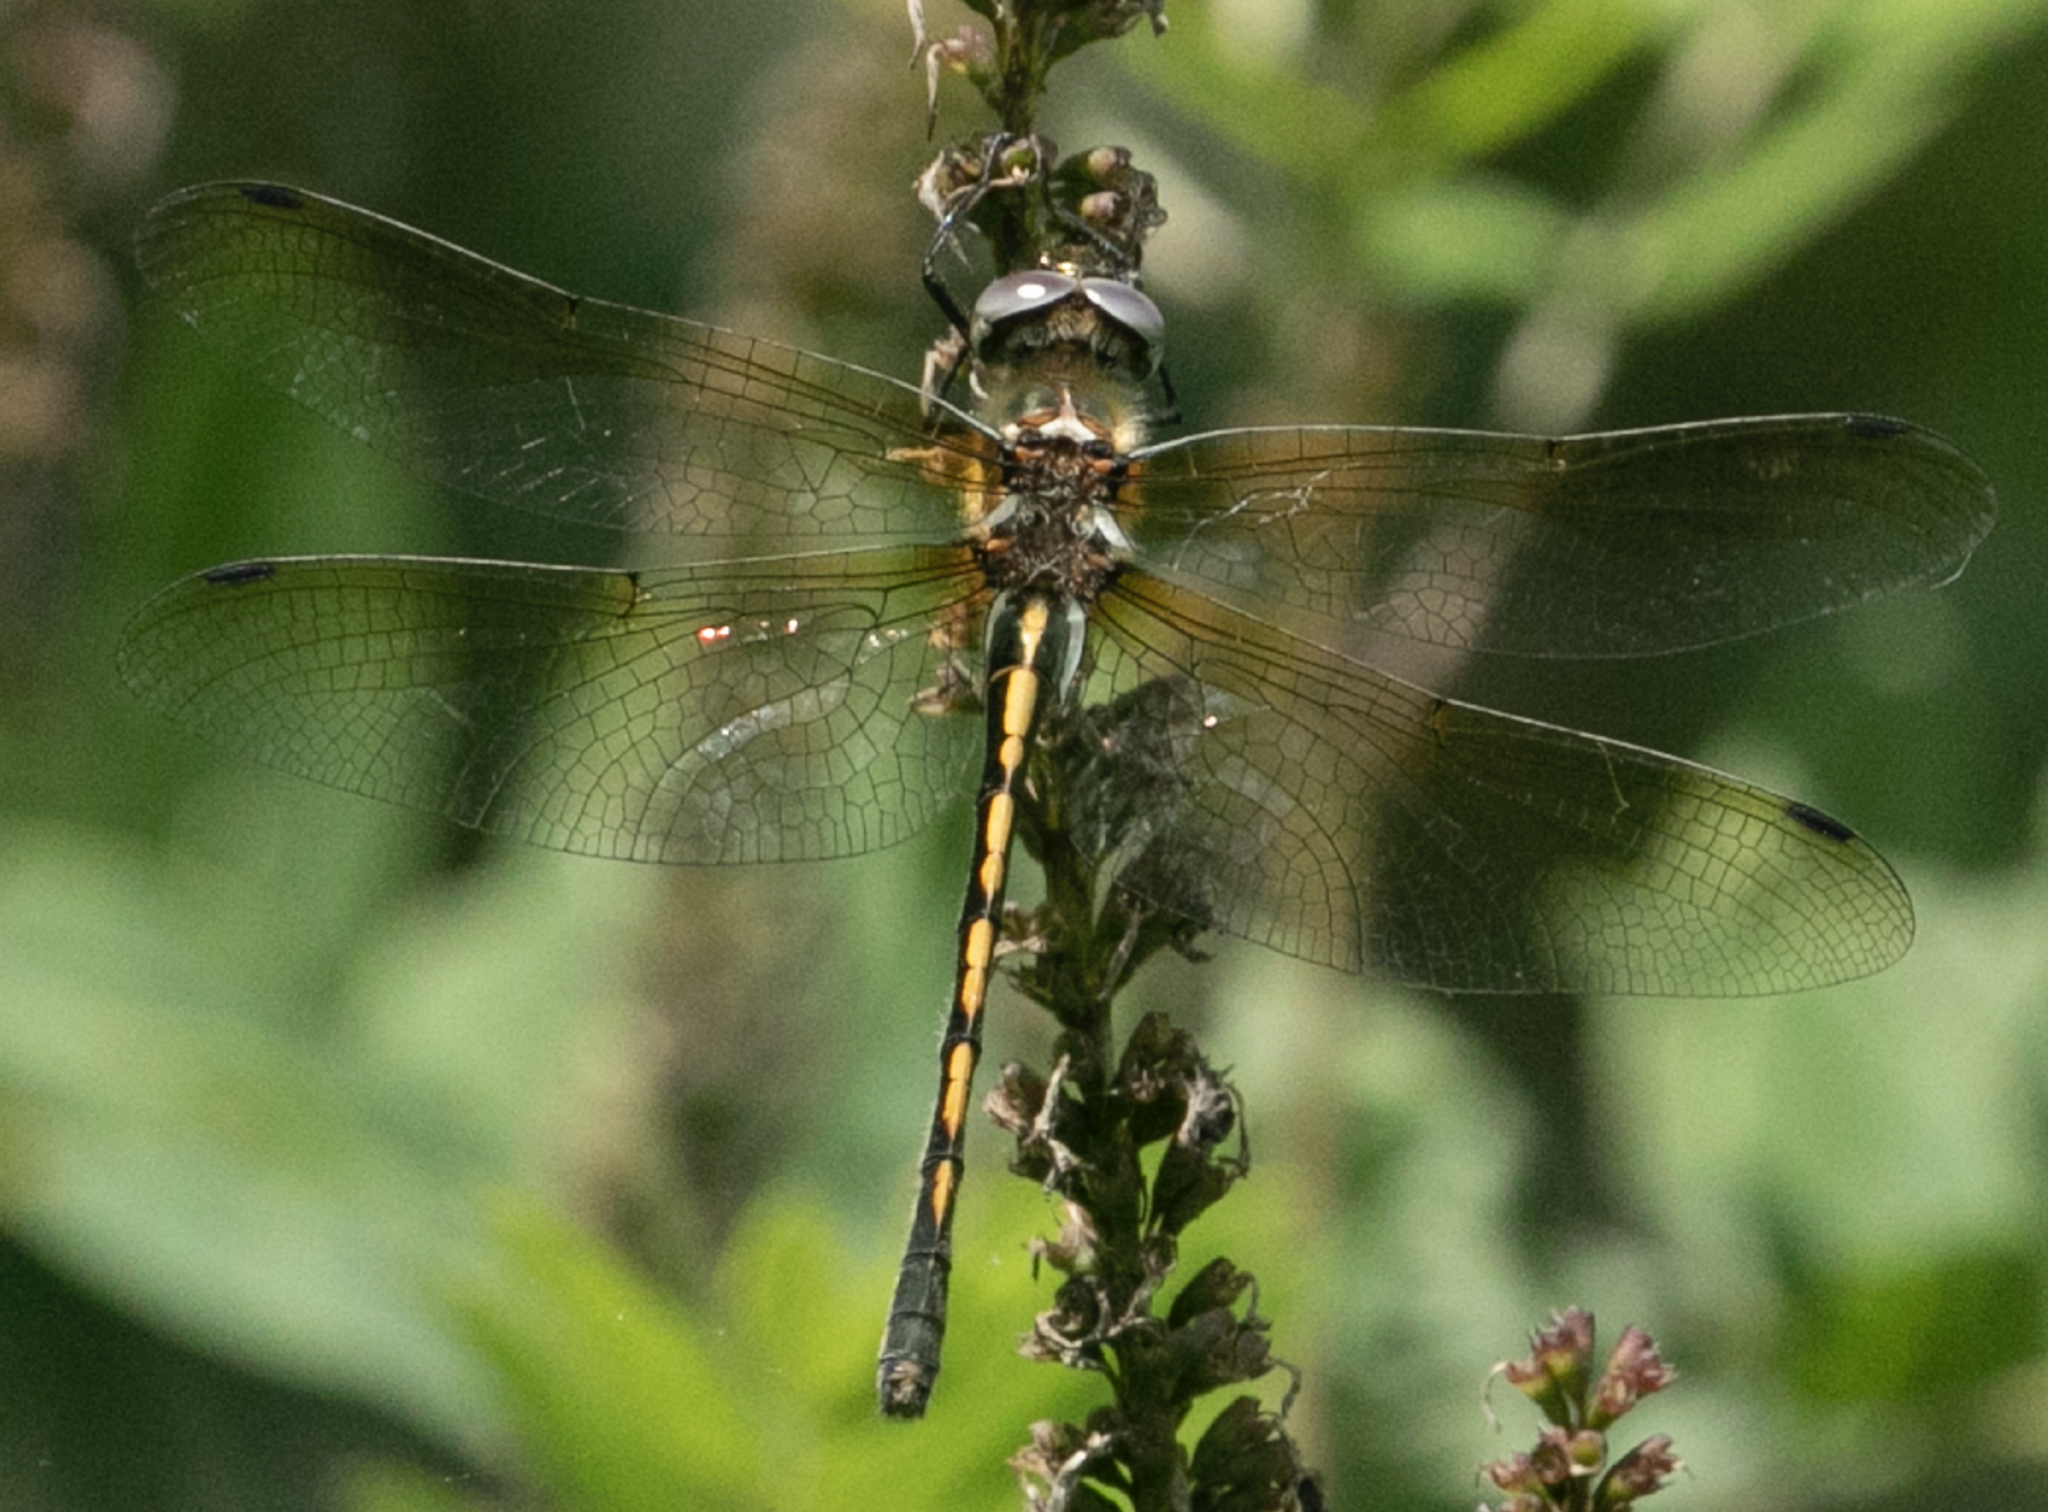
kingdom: Animalia
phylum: Arthropoda
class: Insecta
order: Odonata
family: Corduliidae
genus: Oxygastra
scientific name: Oxygastra curtisii
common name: Orange-spotted emerald
